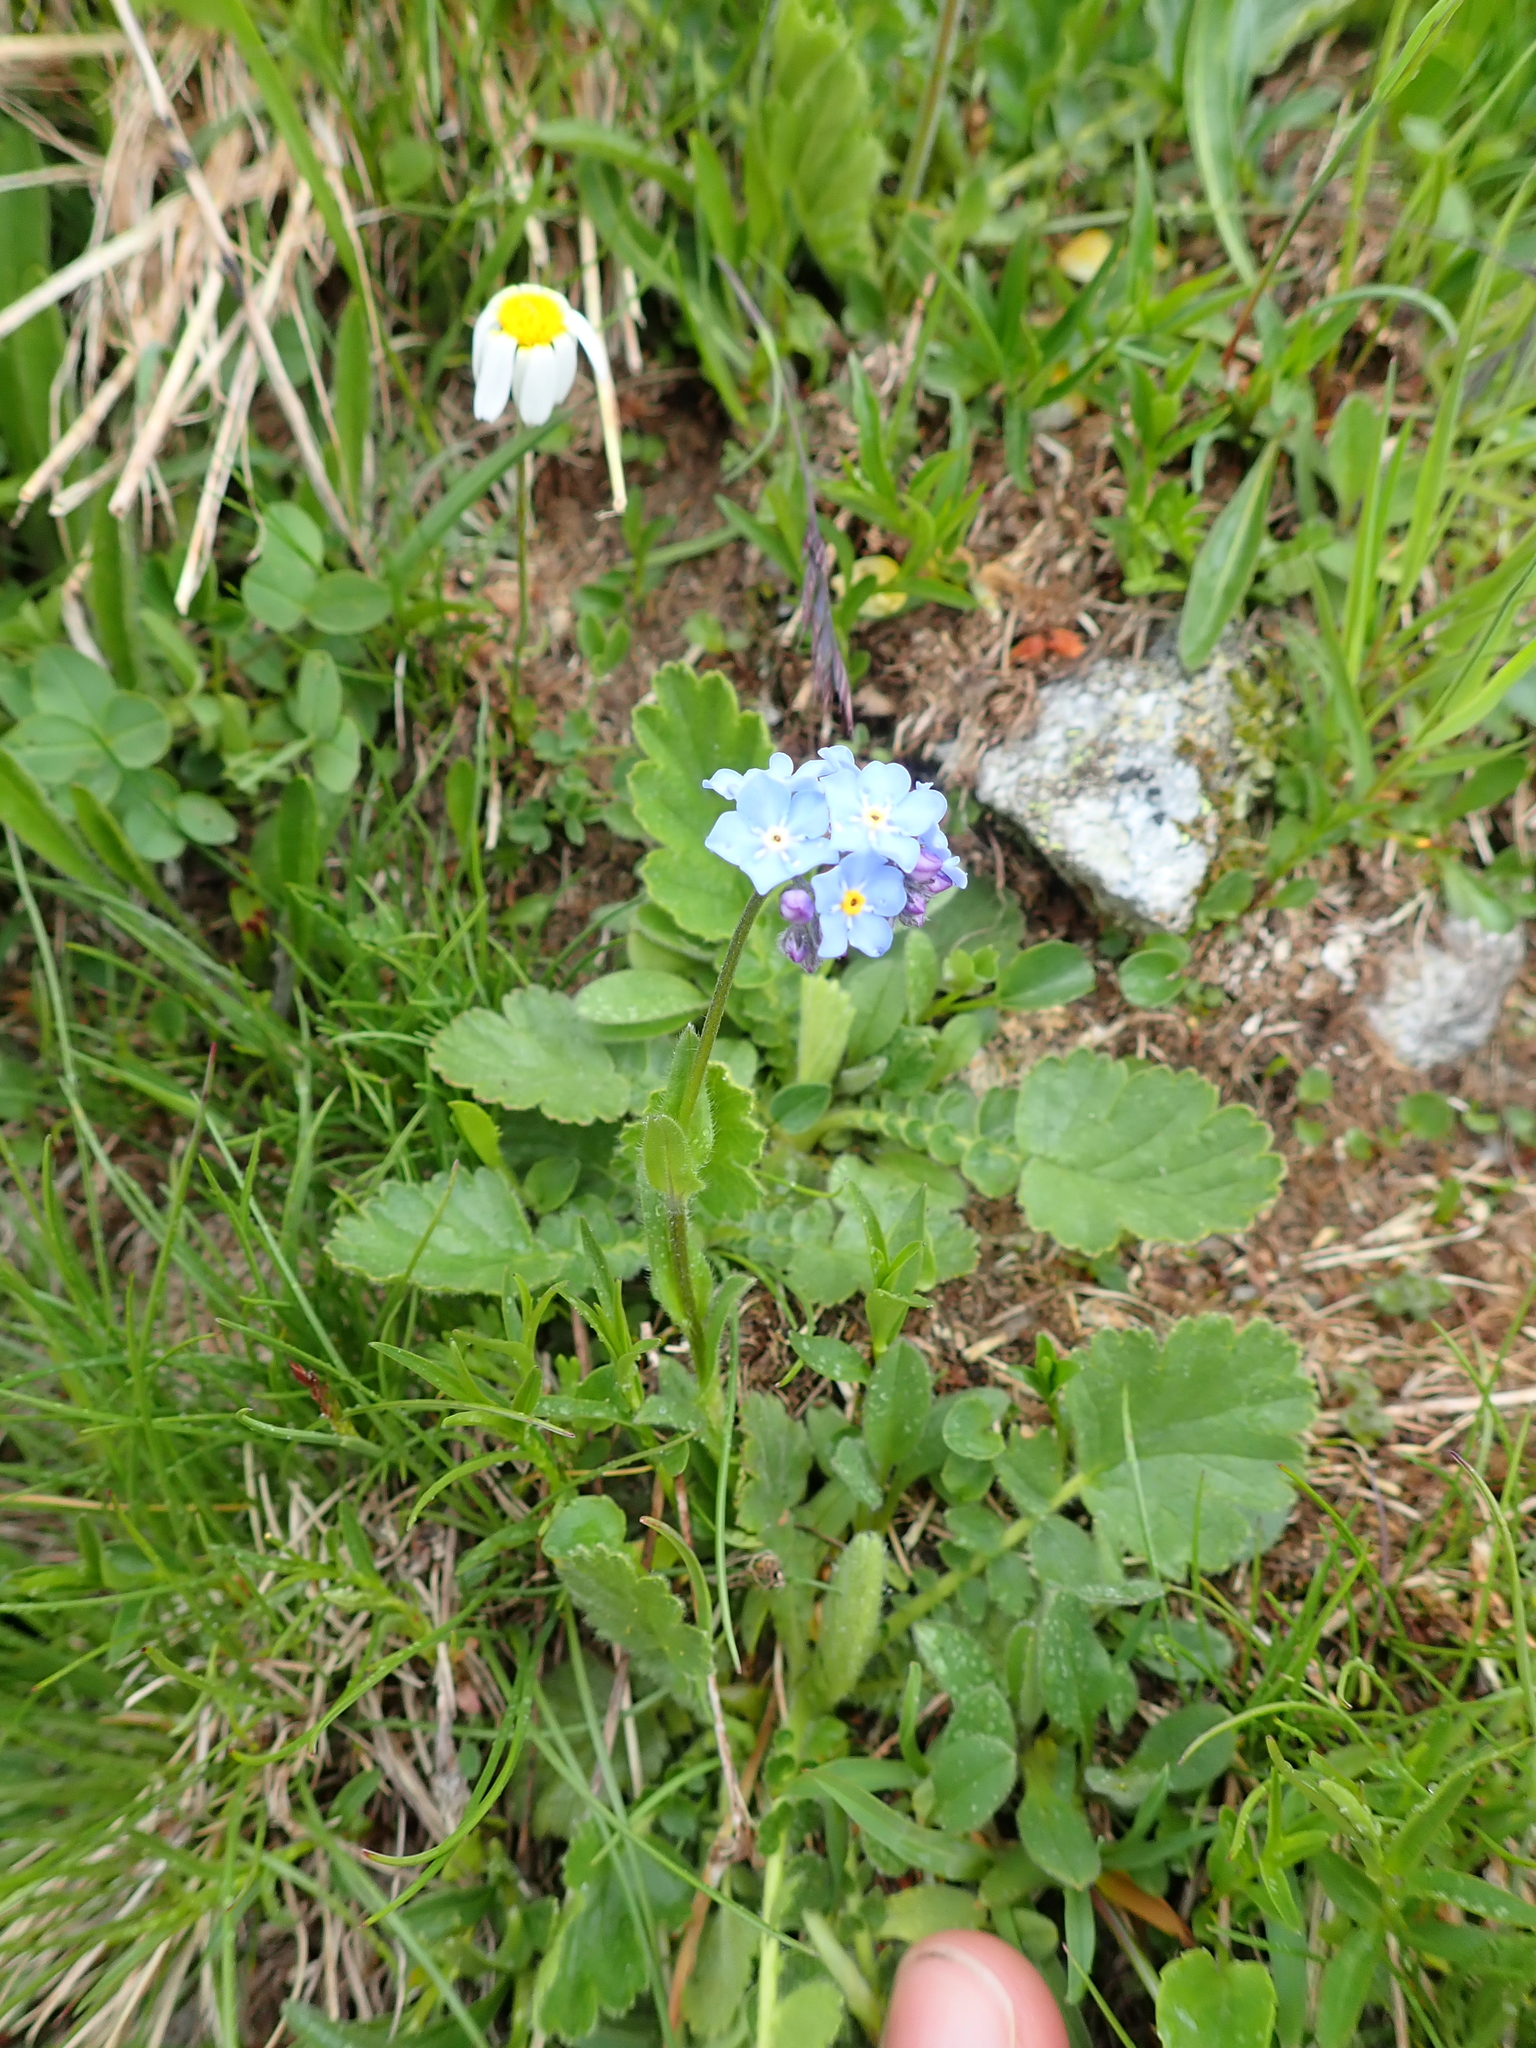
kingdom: Plantae
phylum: Tracheophyta
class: Magnoliopsida
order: Boraginales
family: Boraginaceae
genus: Myosotis
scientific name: Myosotis alpestris
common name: Alpine forget-me-not
